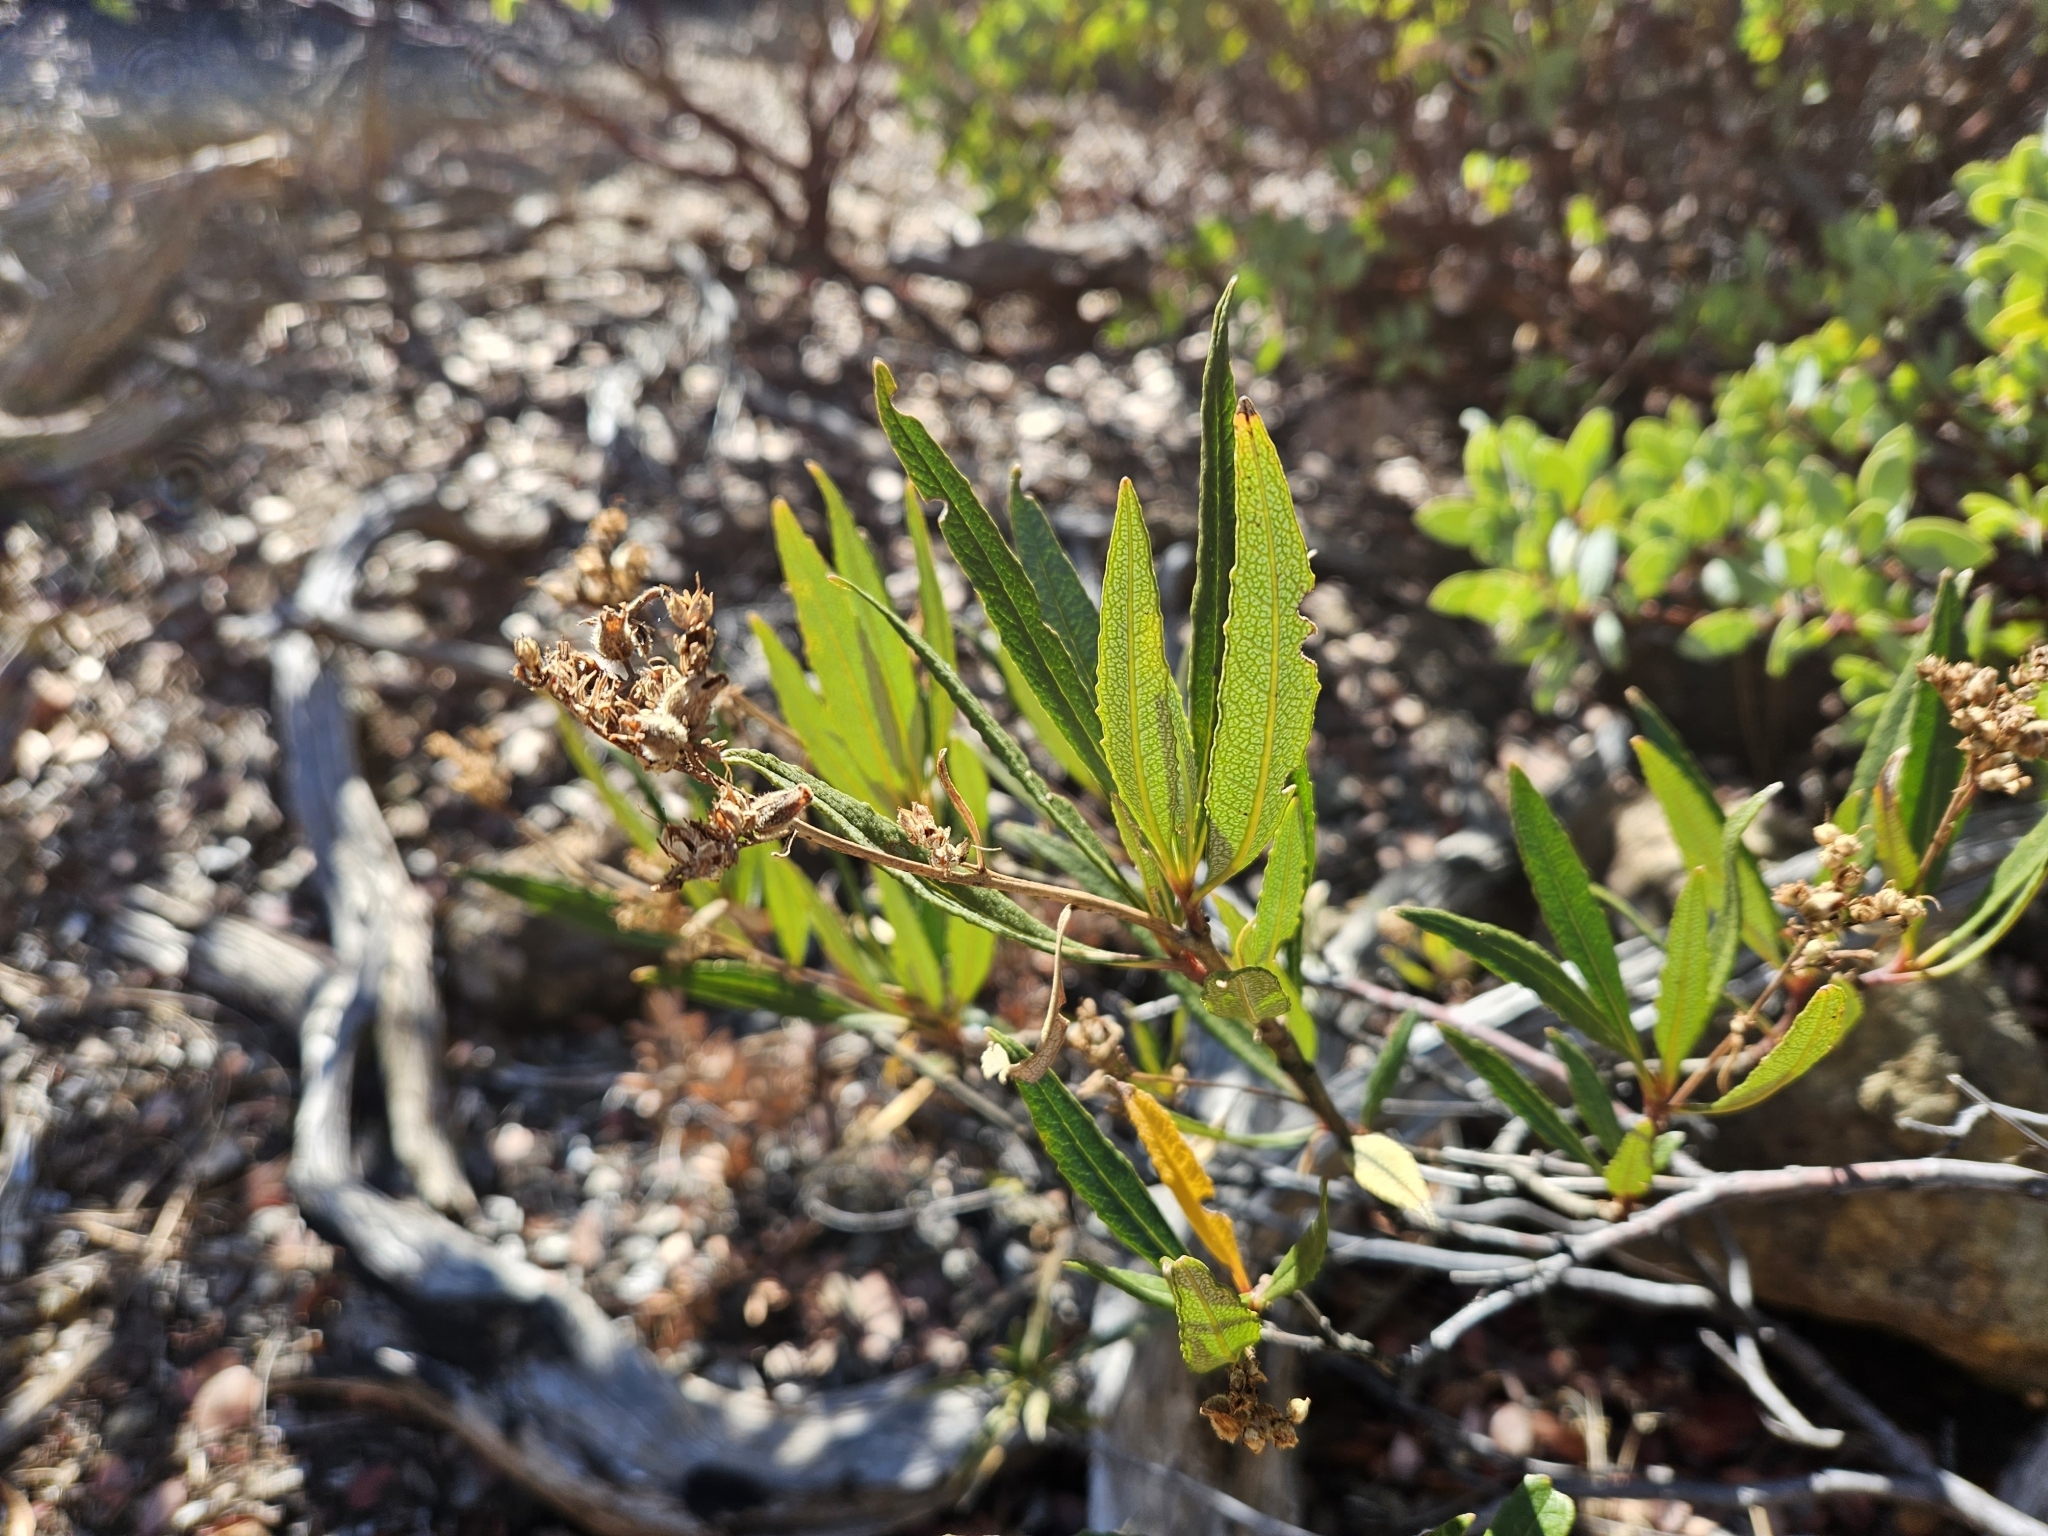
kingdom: Plantae
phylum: Tracheophyta
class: Magnoliopsida
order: Boraginales
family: Namaceae
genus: Eriodictyon
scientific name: Eriodictyon californicum
